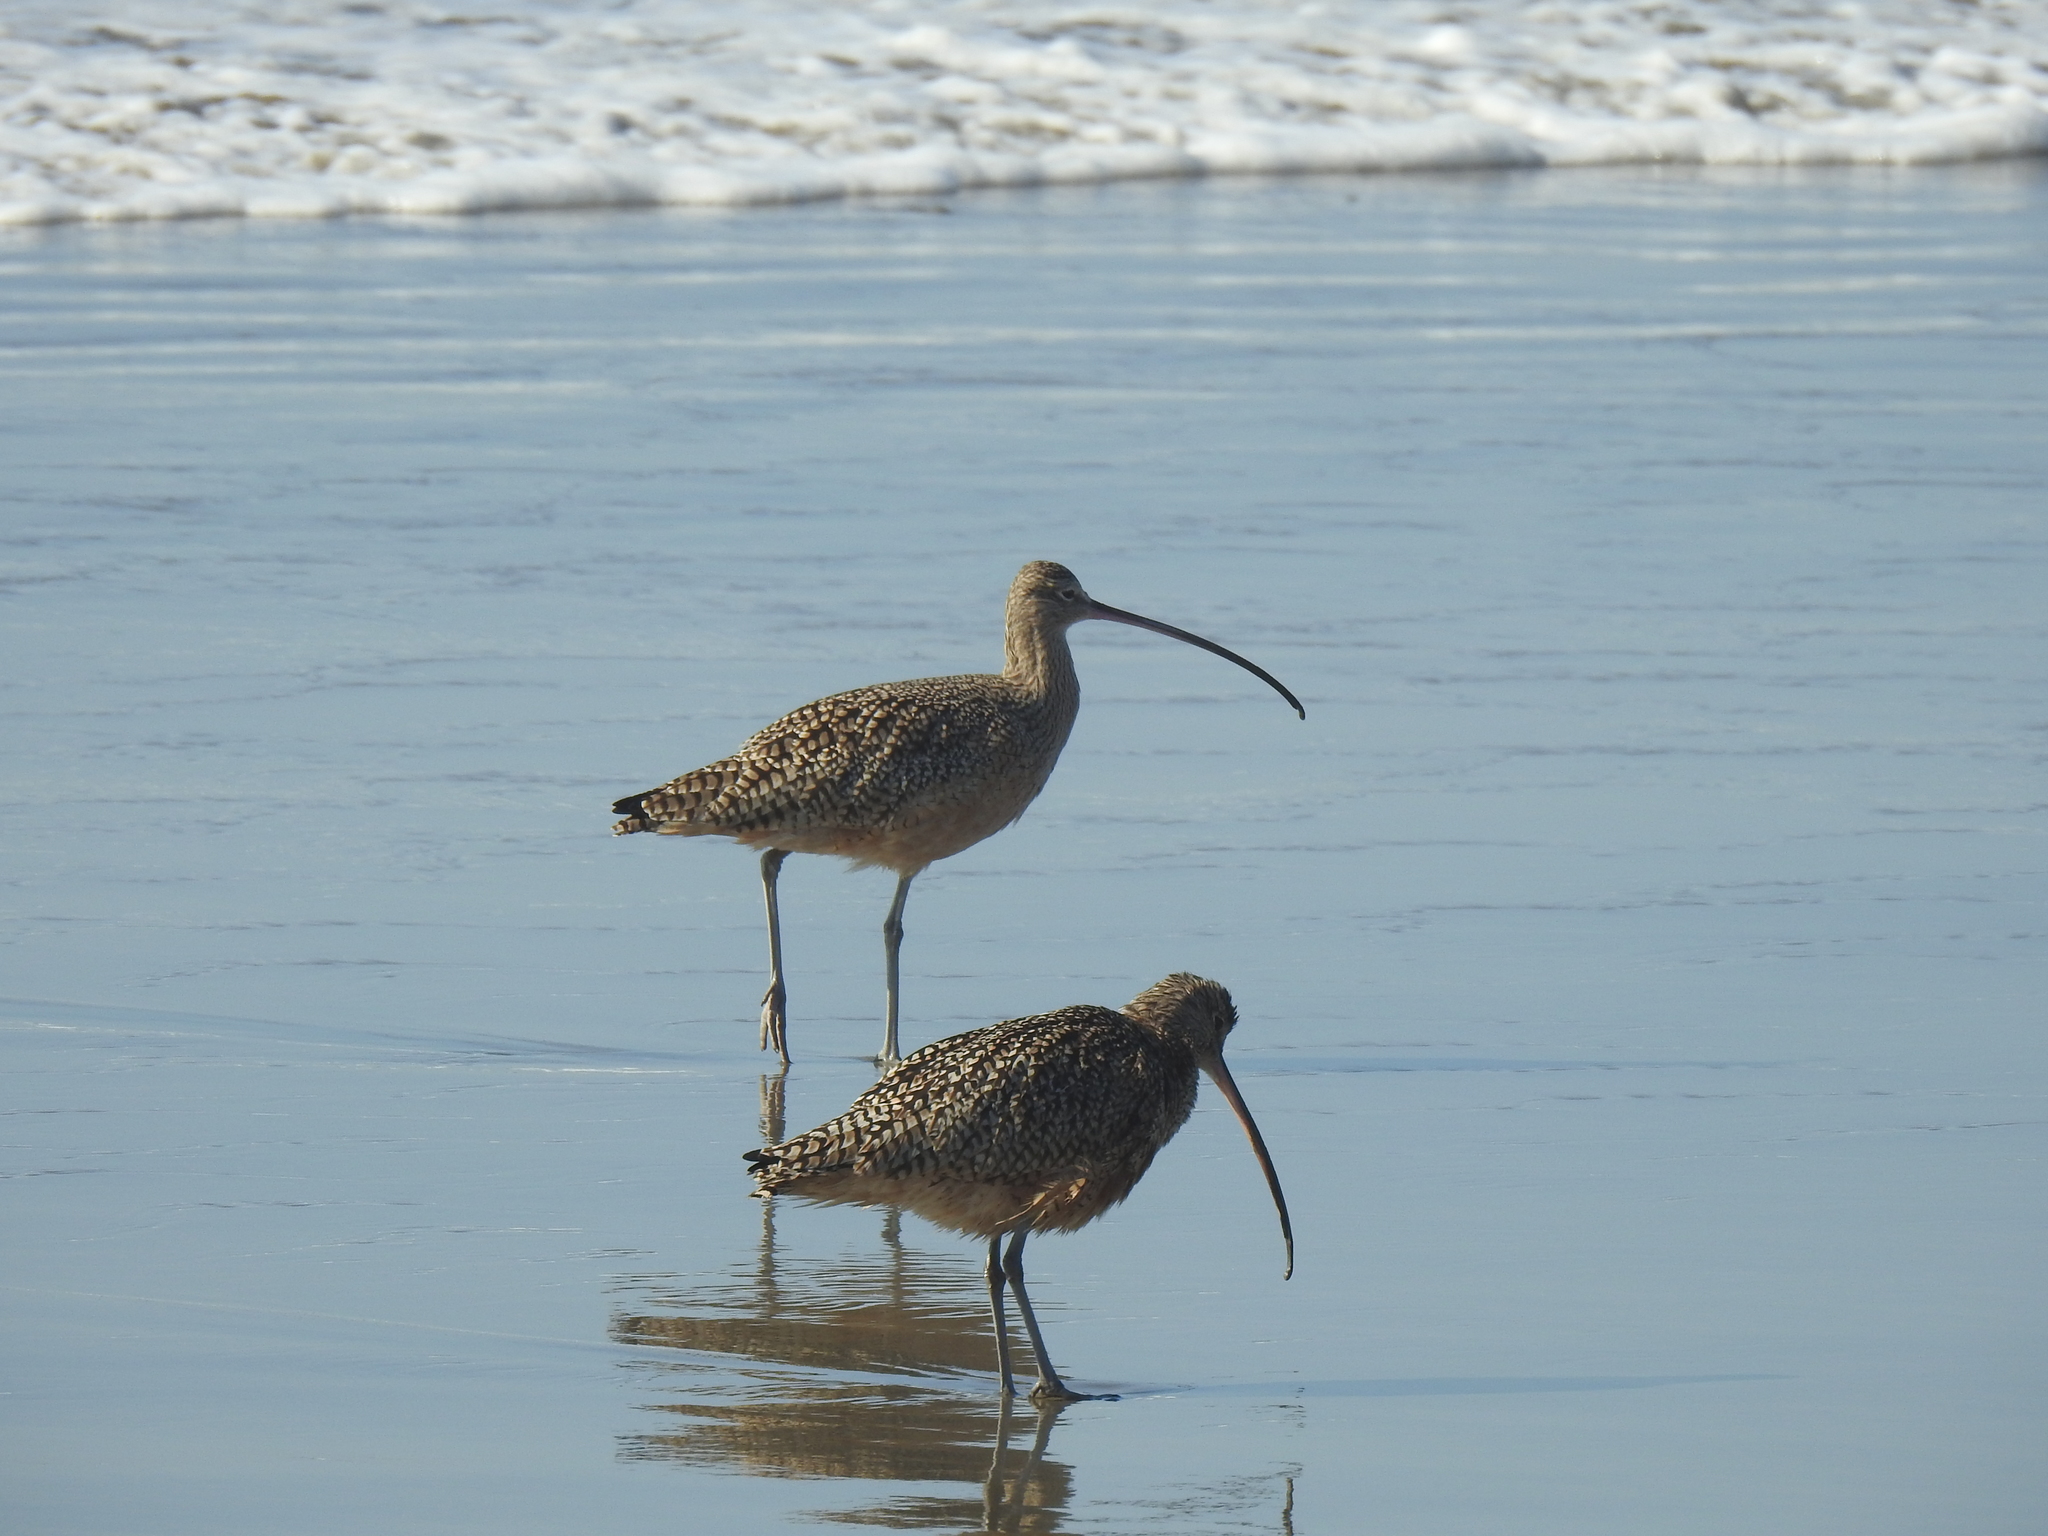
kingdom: Animalia
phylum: Chordata
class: Aves
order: Charadriiformes
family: Scolopacidae
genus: Numenius
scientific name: Numenius americanus
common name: Long-billed curlew
